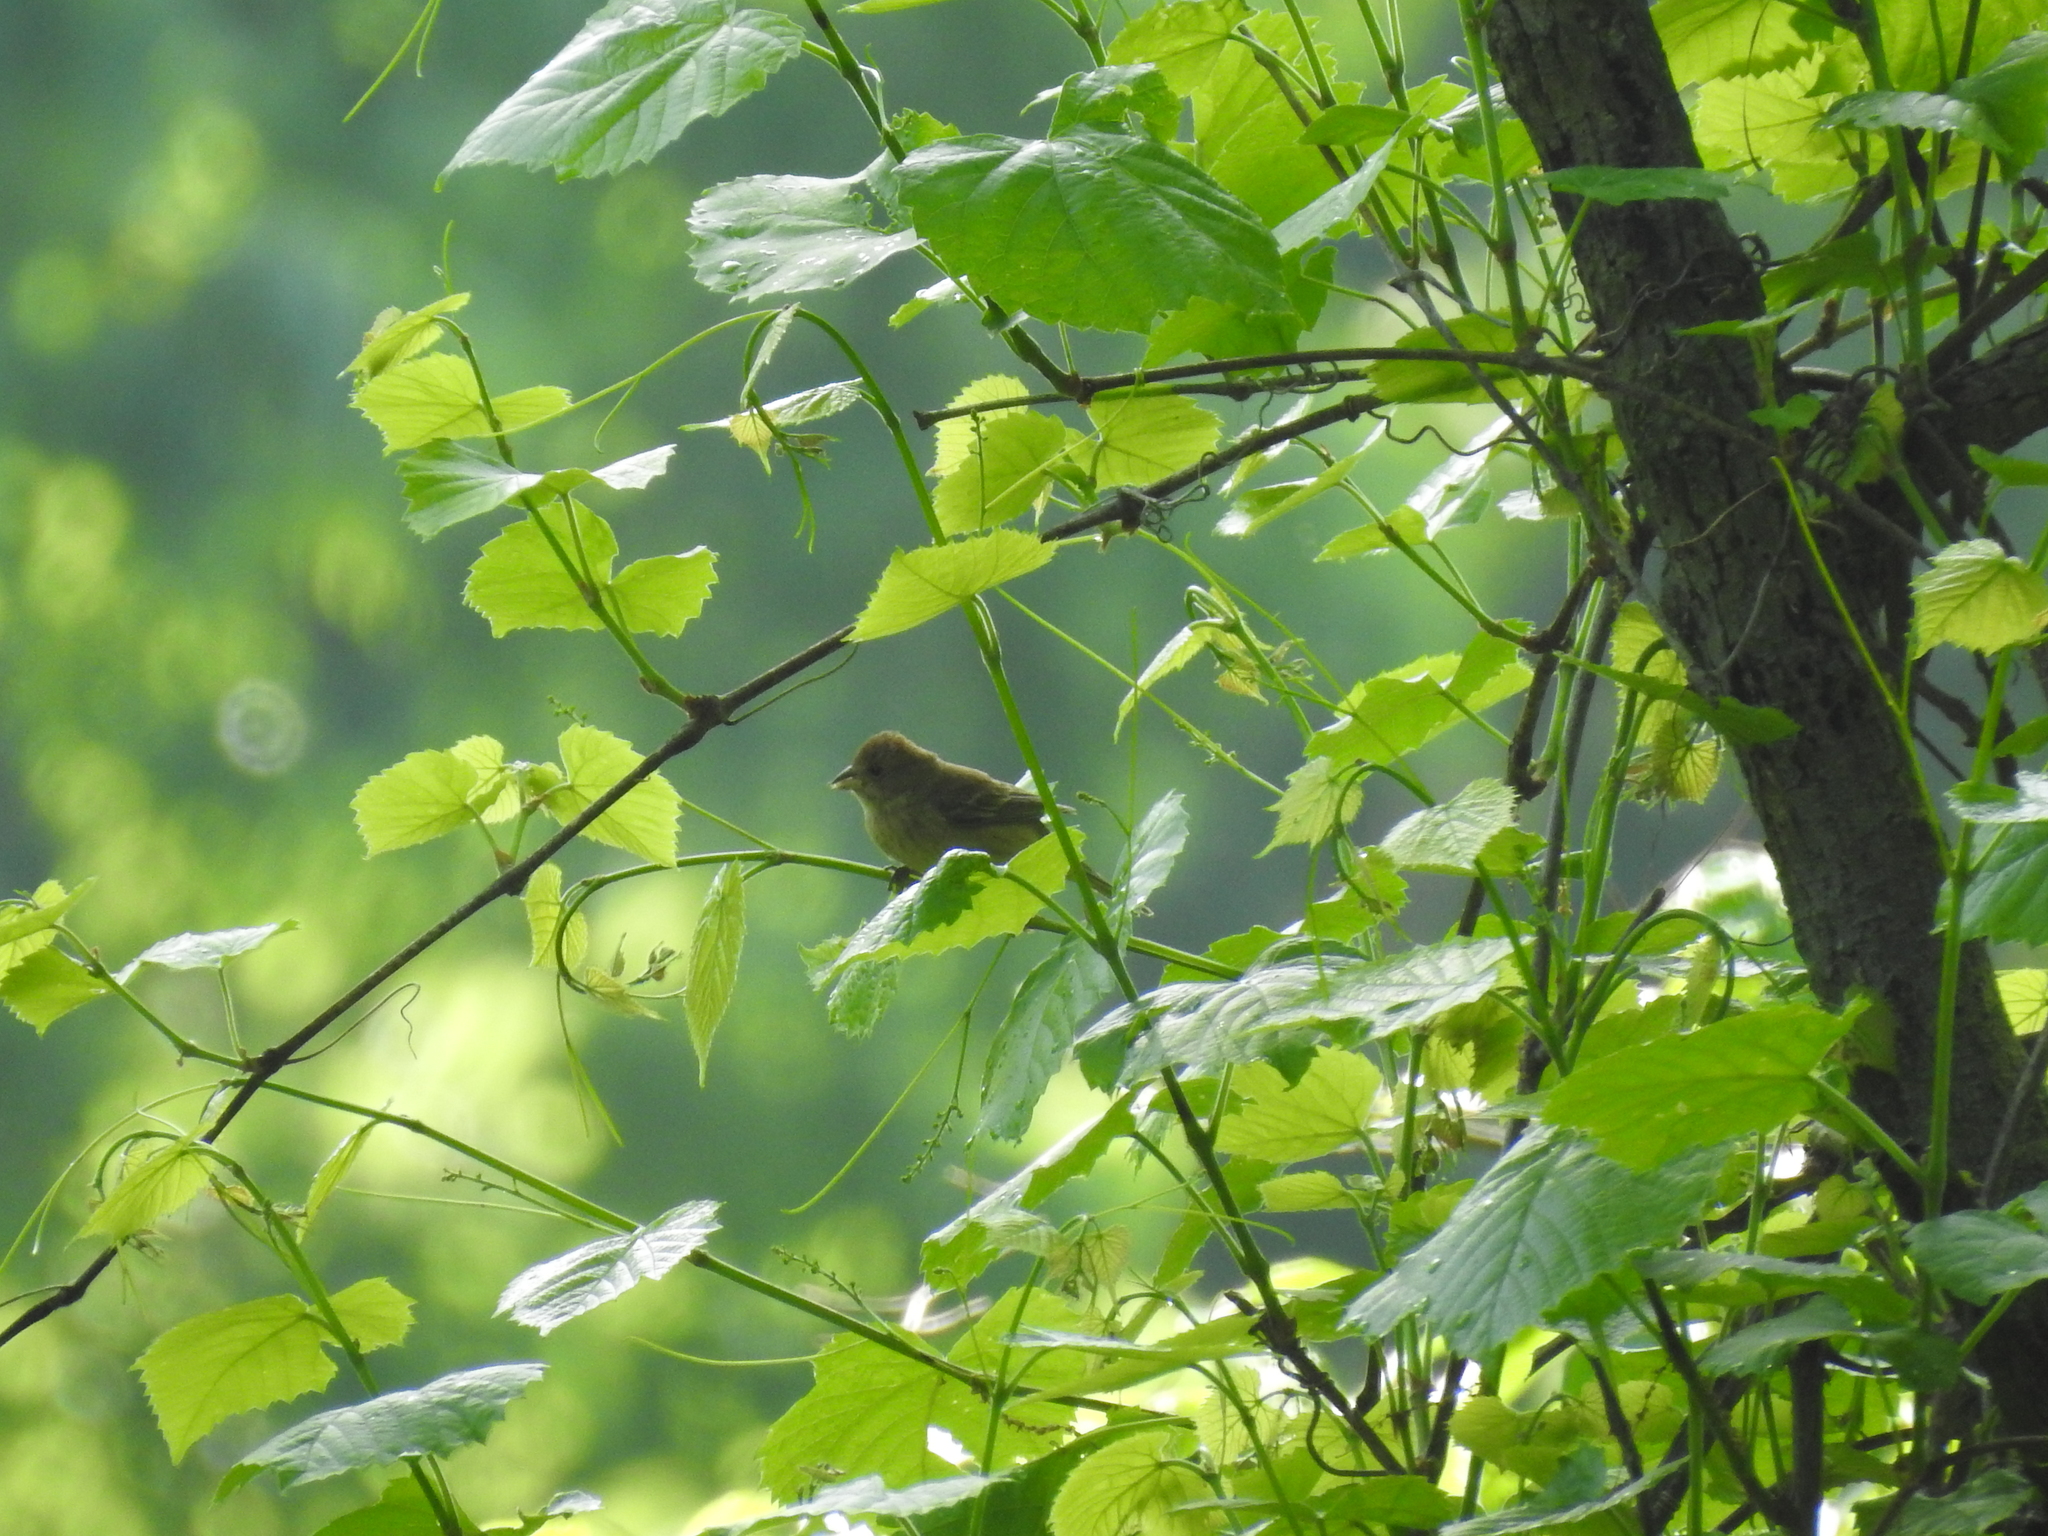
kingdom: Animalia
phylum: Chordata
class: Aves
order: Passeriformes
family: Cardinalidae
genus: Passerina
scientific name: Passerina cyanea
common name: Indigo bunting
